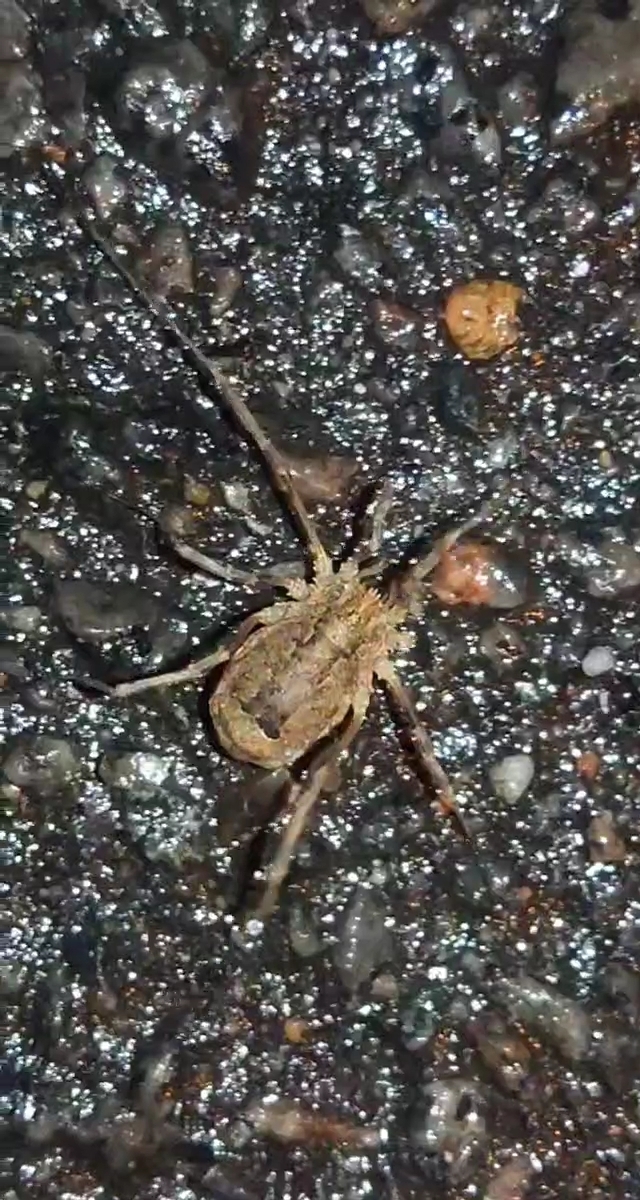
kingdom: Animalia
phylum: Arthropoda
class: Arachnida
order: Opiliones
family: Phalangiidae
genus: Odiellus
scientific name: Odiellus spinosus
